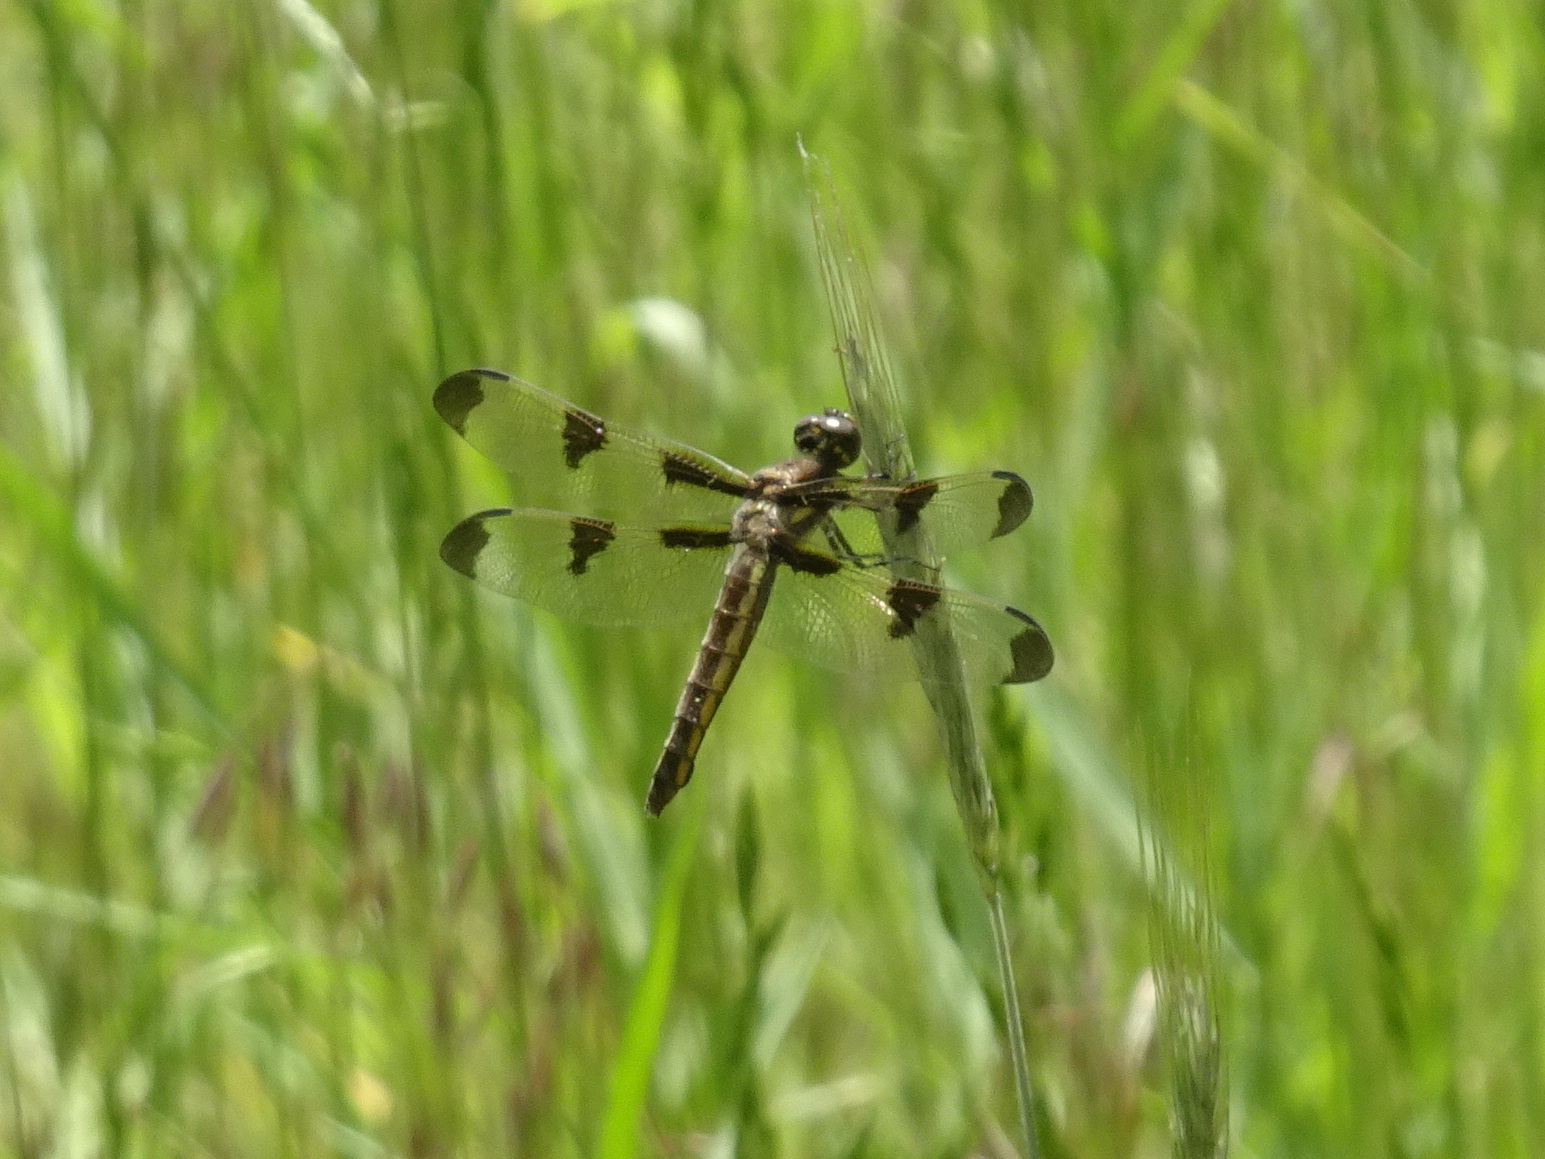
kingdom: Animalia
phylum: Arthropoda
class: Insecta
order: Odonata
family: Libellulidae
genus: Libellula
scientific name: Libellula pulchella
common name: Twelve-spotted skimmer
